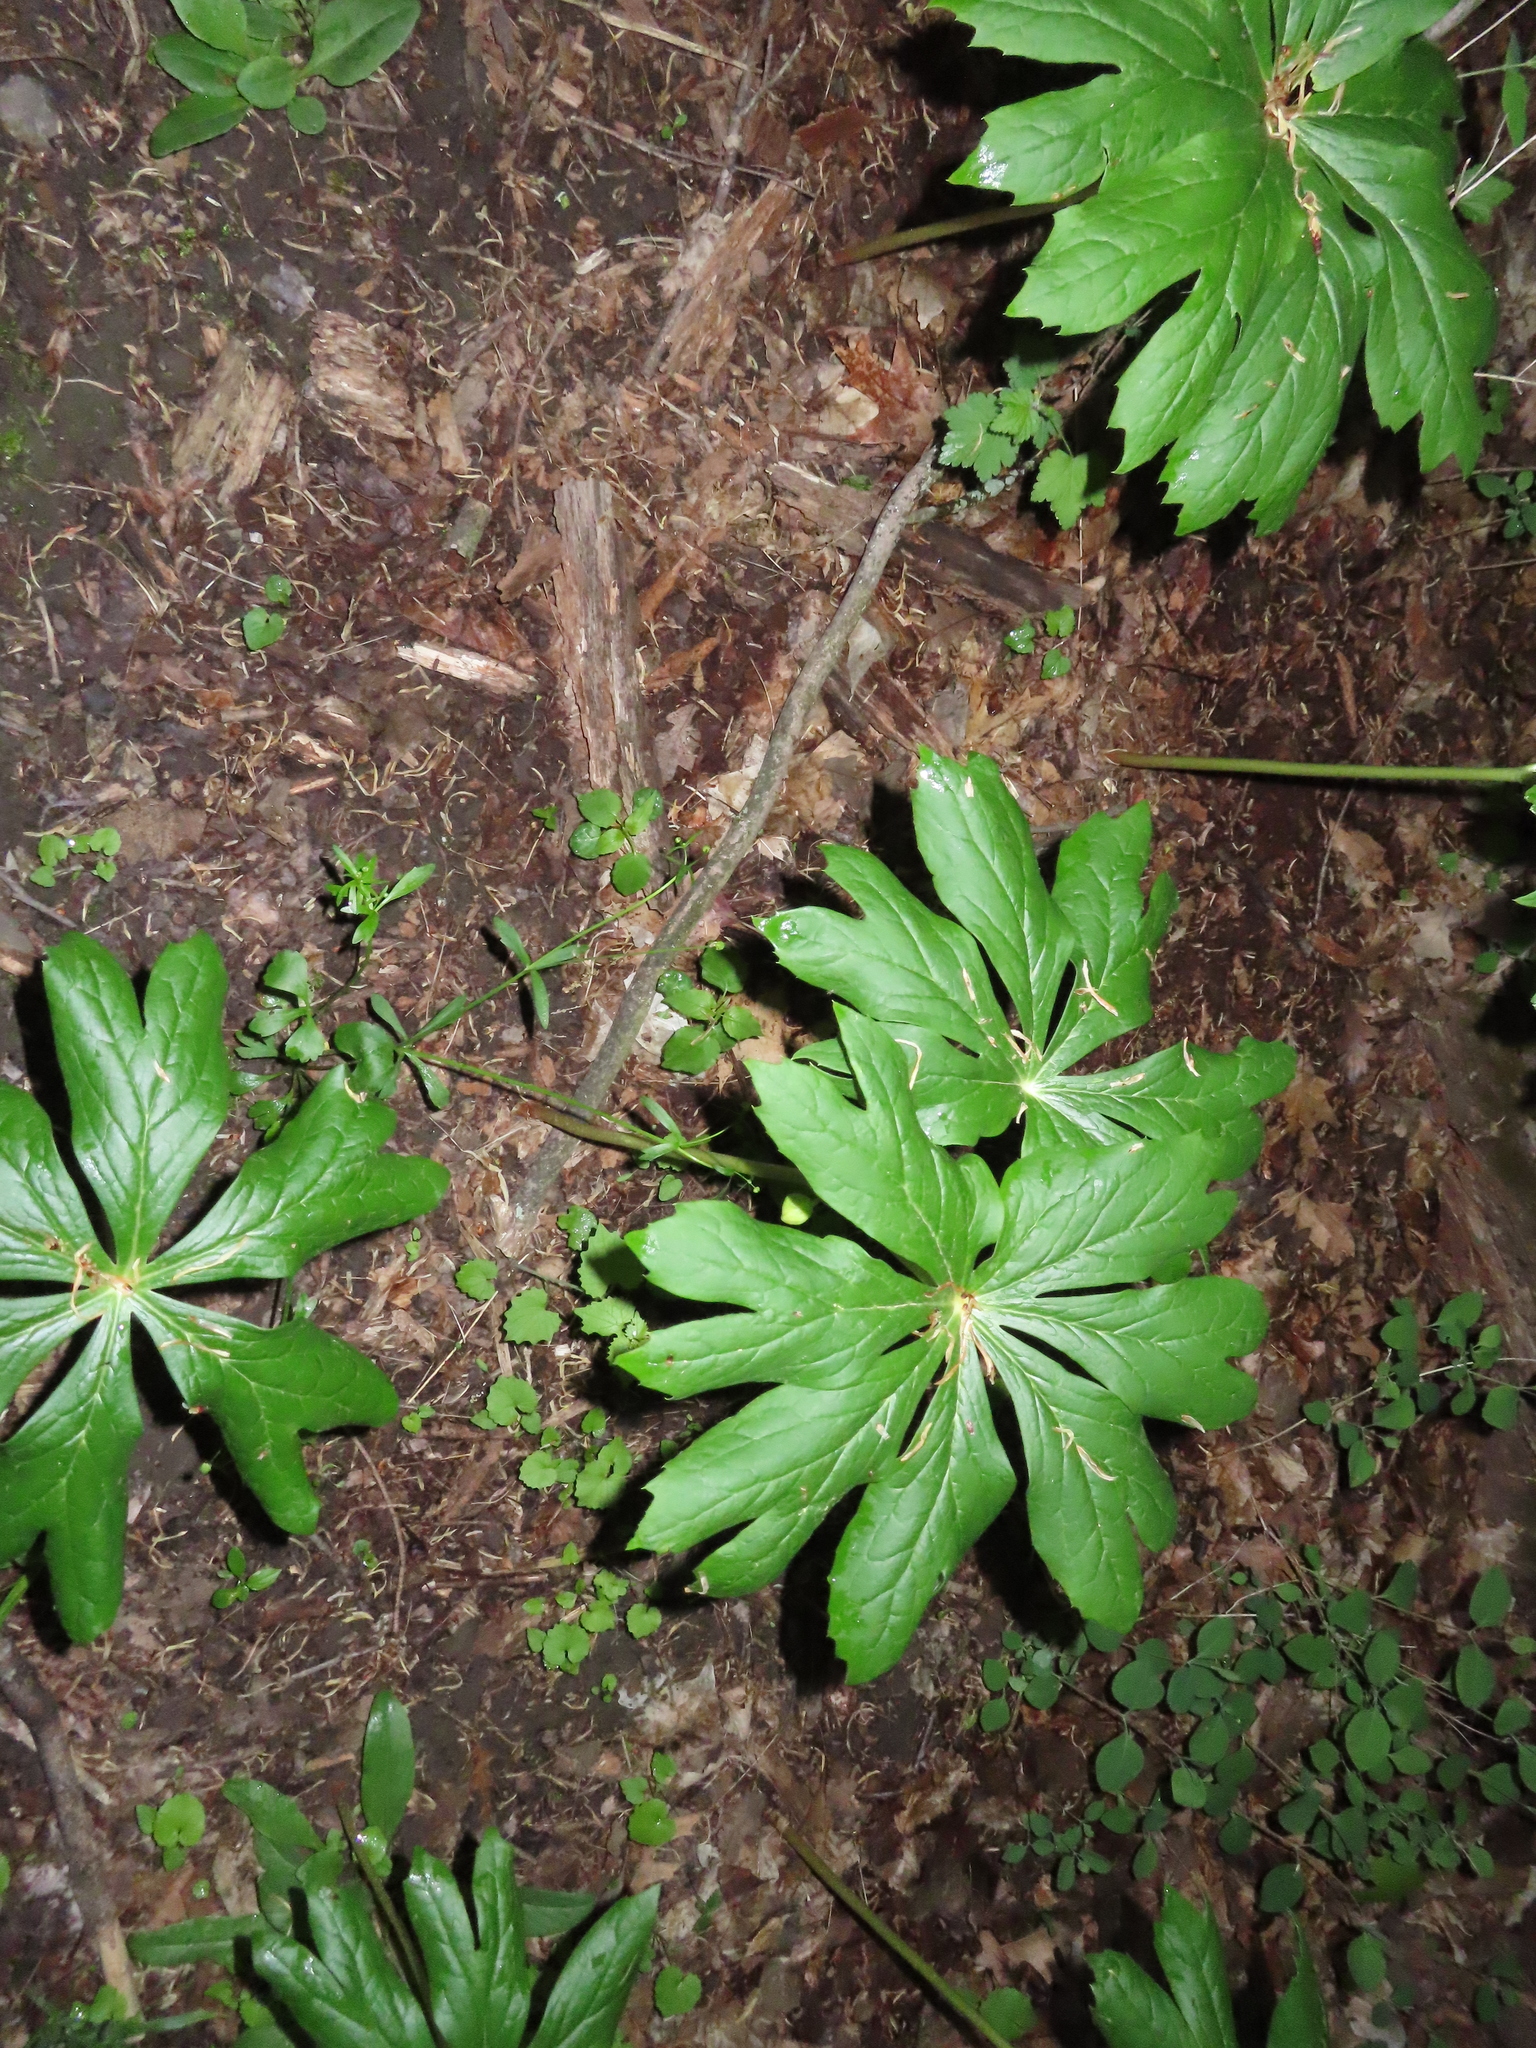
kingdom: Plantae
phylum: Tracheophyta
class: Magnoliopsida
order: Ranunculales
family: Berberidaceae
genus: Podophyllum
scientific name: Podophyllum peltatum
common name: Wild mandrake
